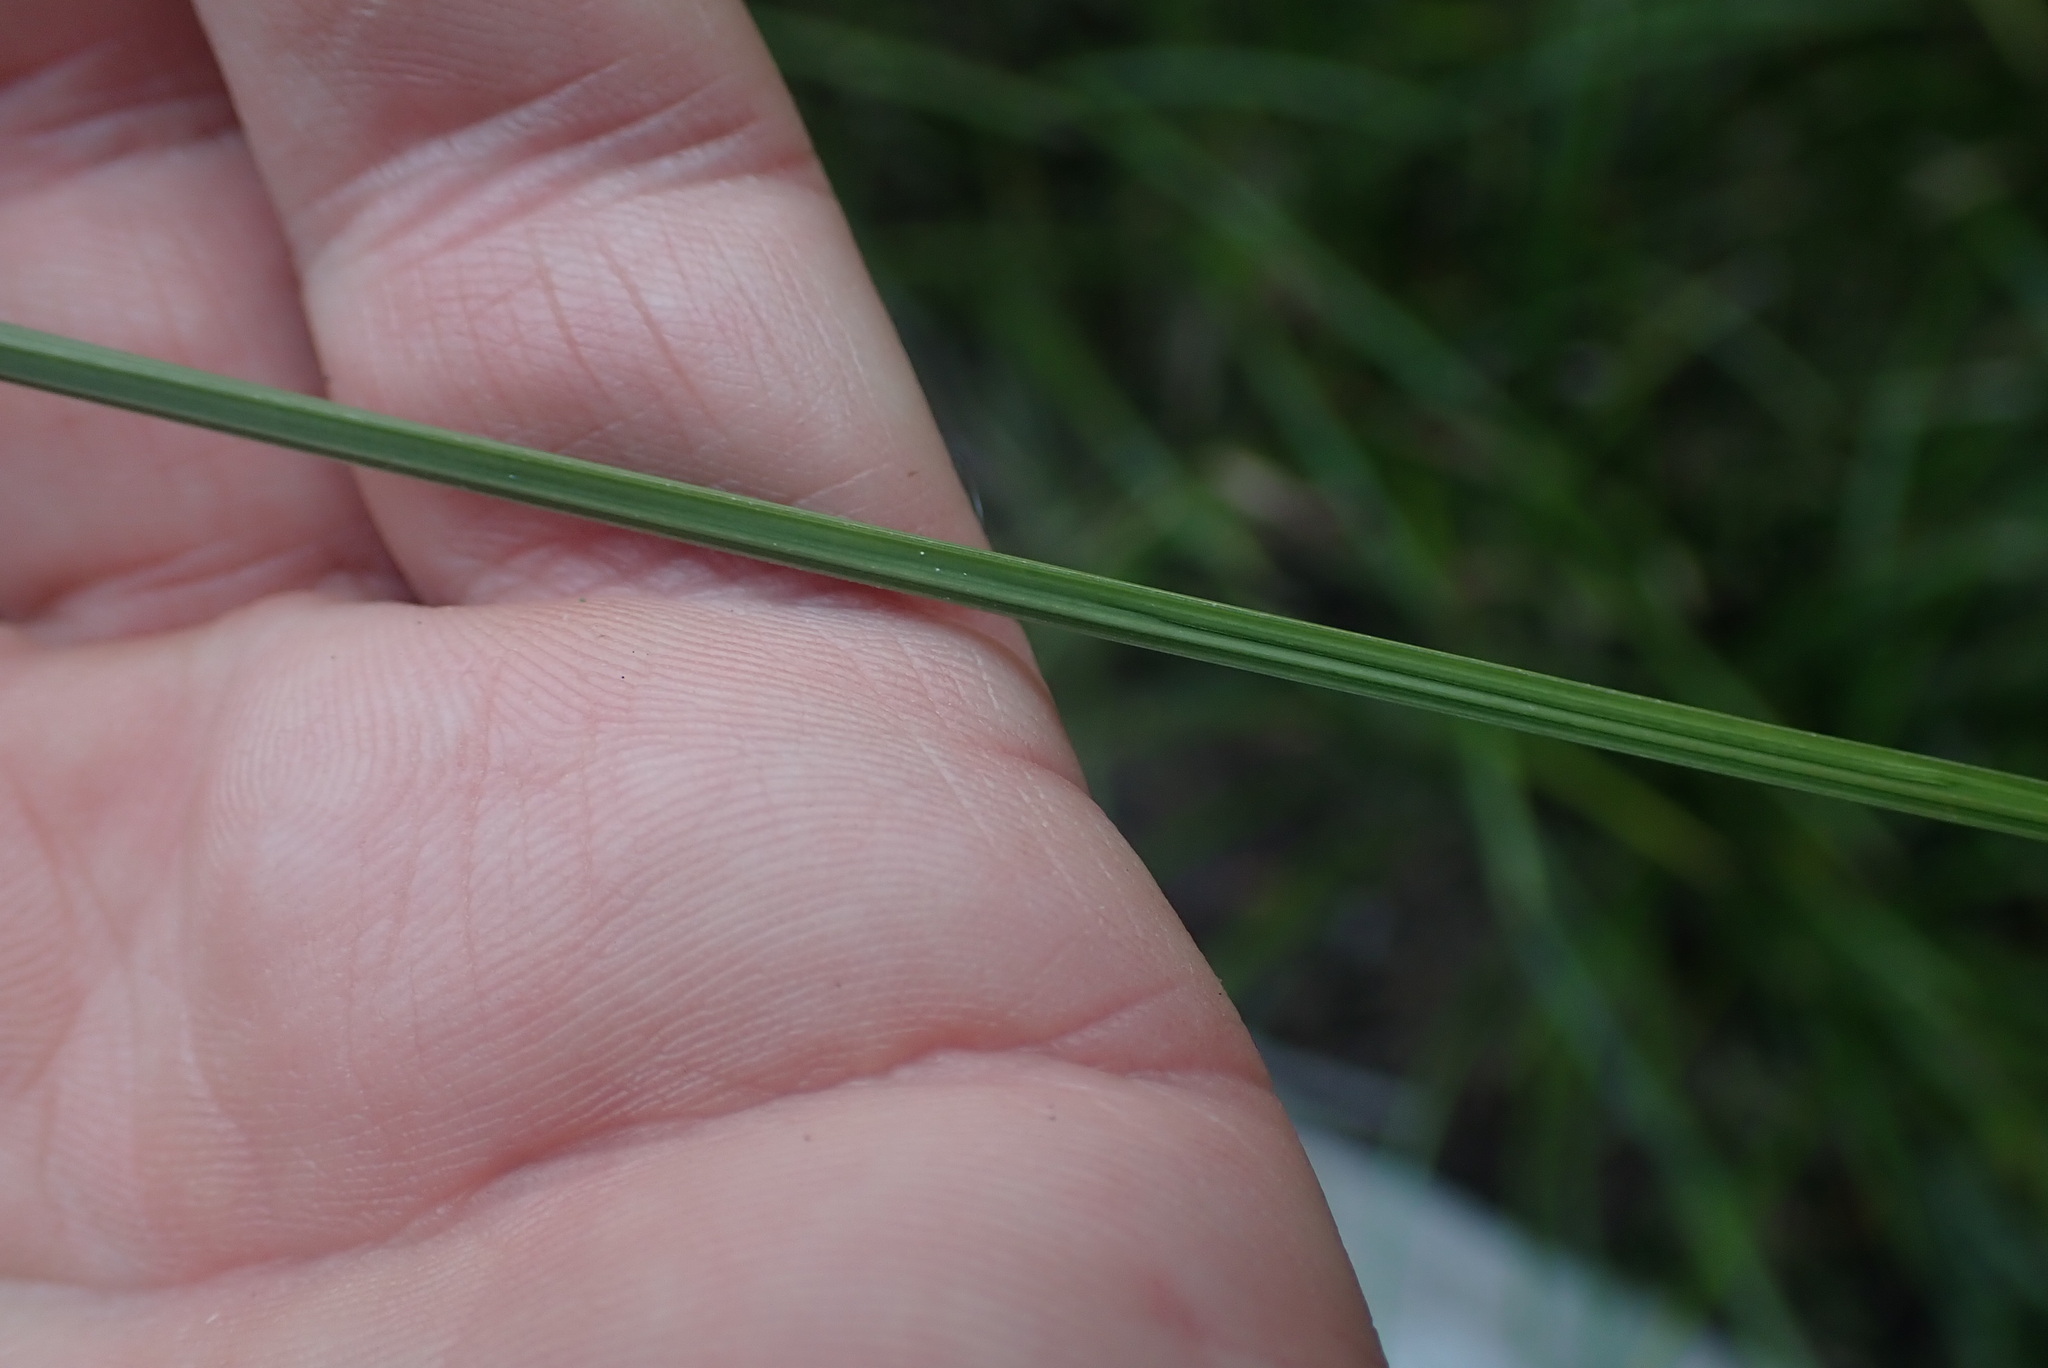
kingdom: Plantae
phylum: Tracheophyta
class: Liliopsida
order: Poales
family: Cyperaceae
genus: Carex
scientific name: Carex obnupta
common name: Slough sedge
